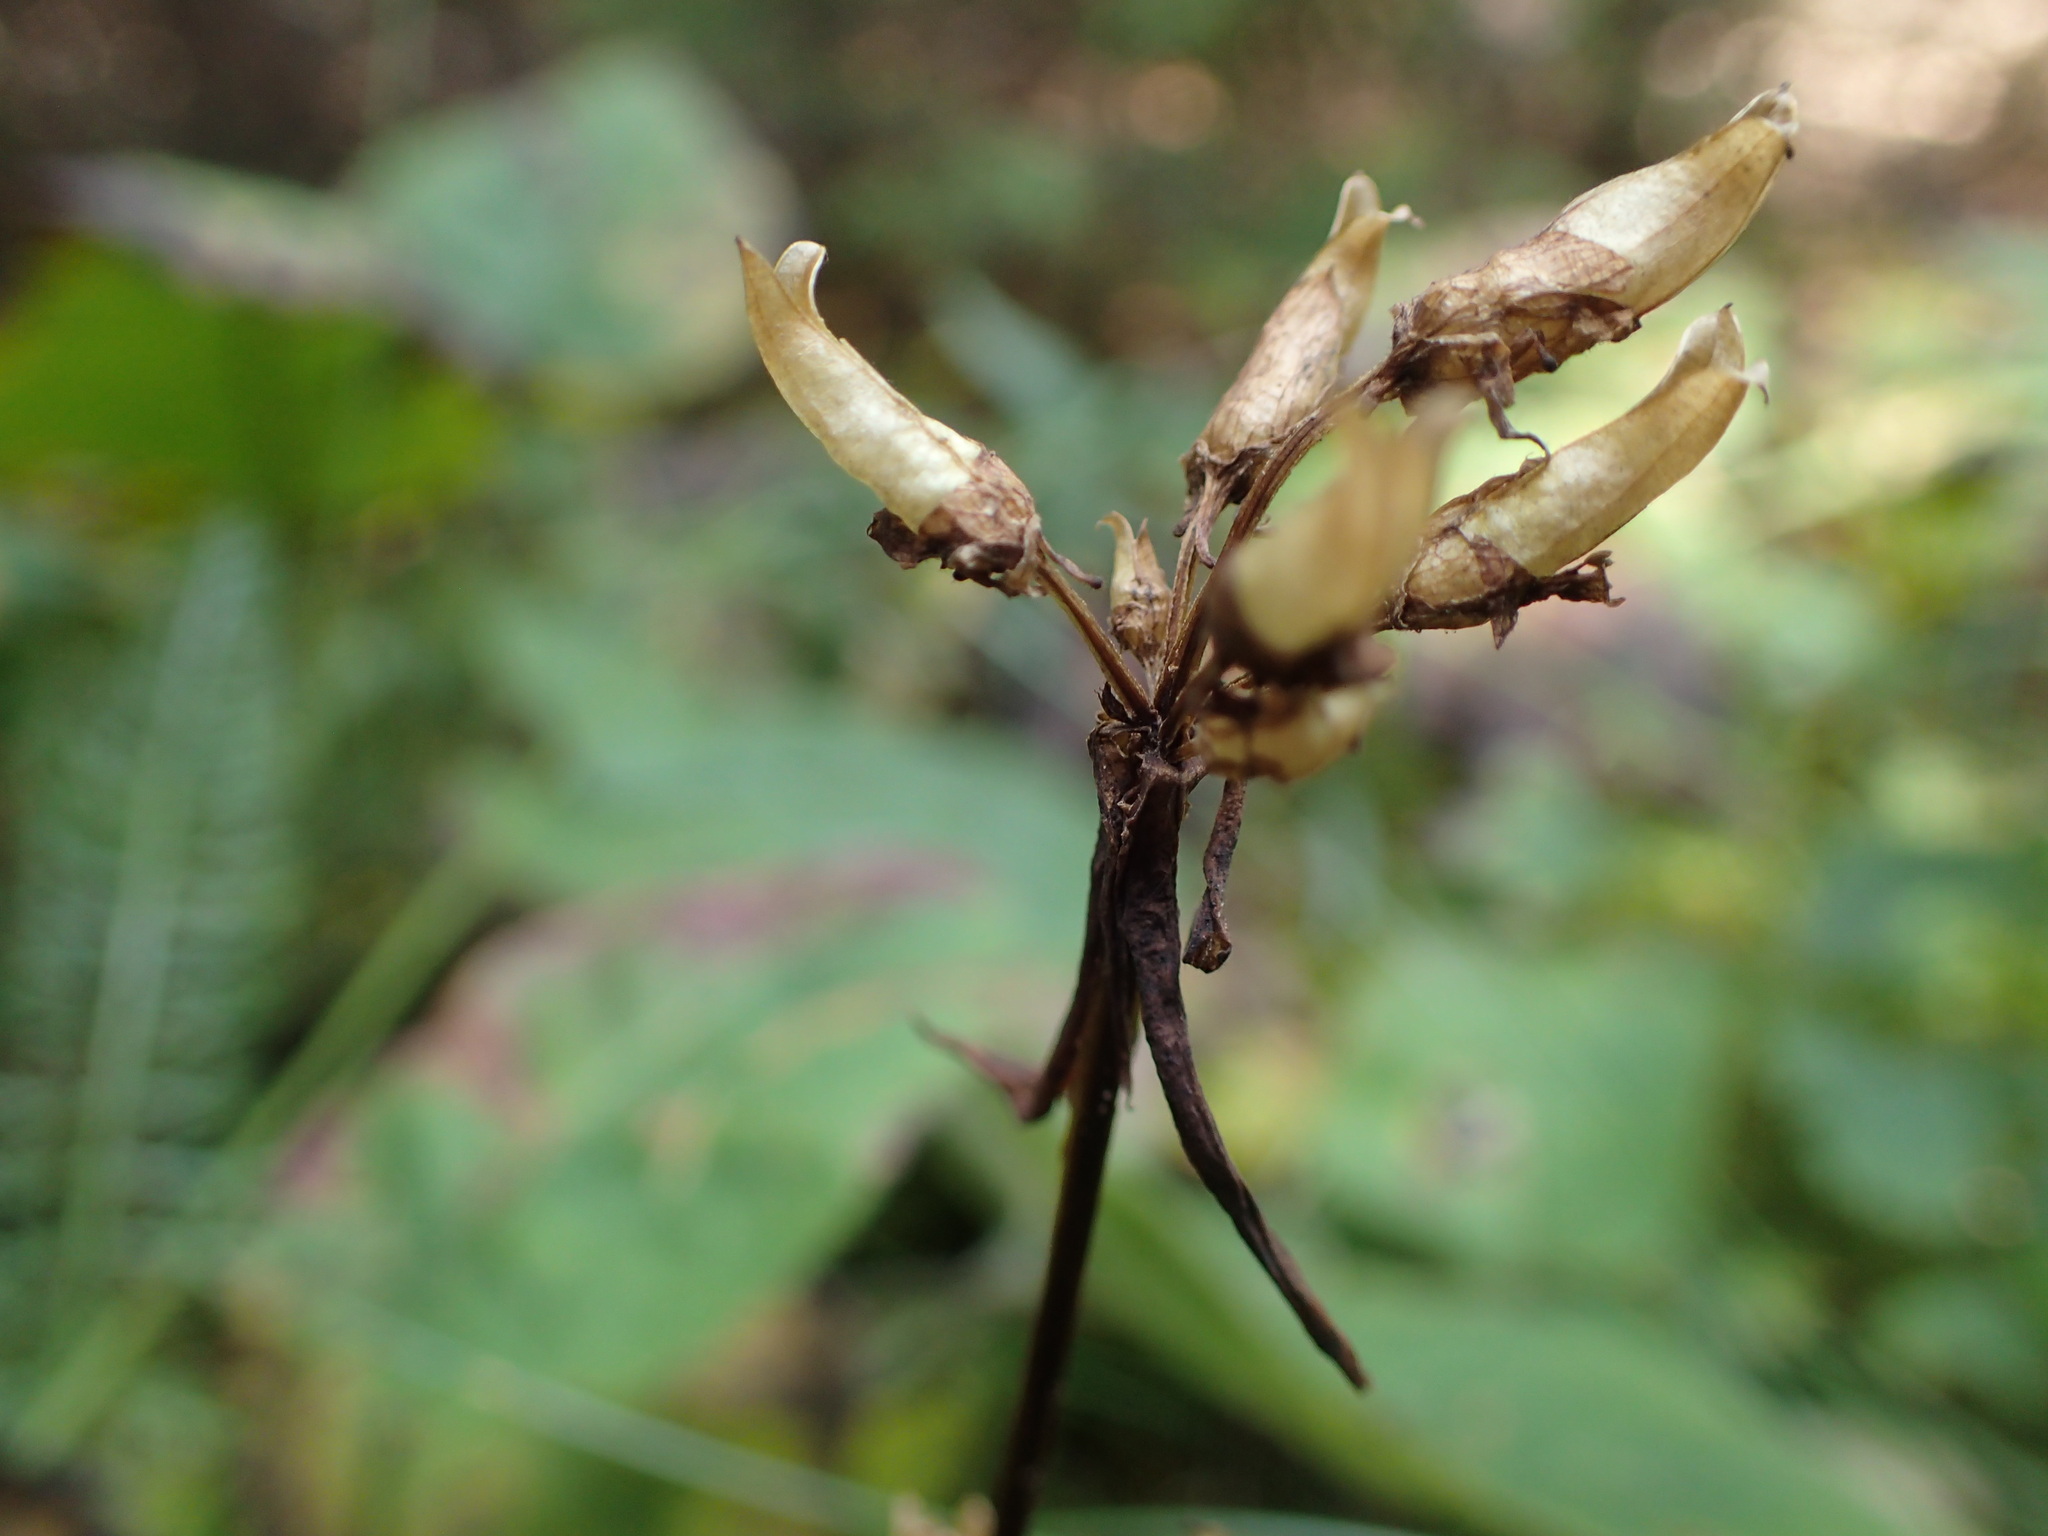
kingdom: Plantae
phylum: Tracheophyta
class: Magnoliopsida
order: Gentianales
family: Gentianaceae
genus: Halenia
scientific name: Halenia deflexa
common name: American spurred gentian
